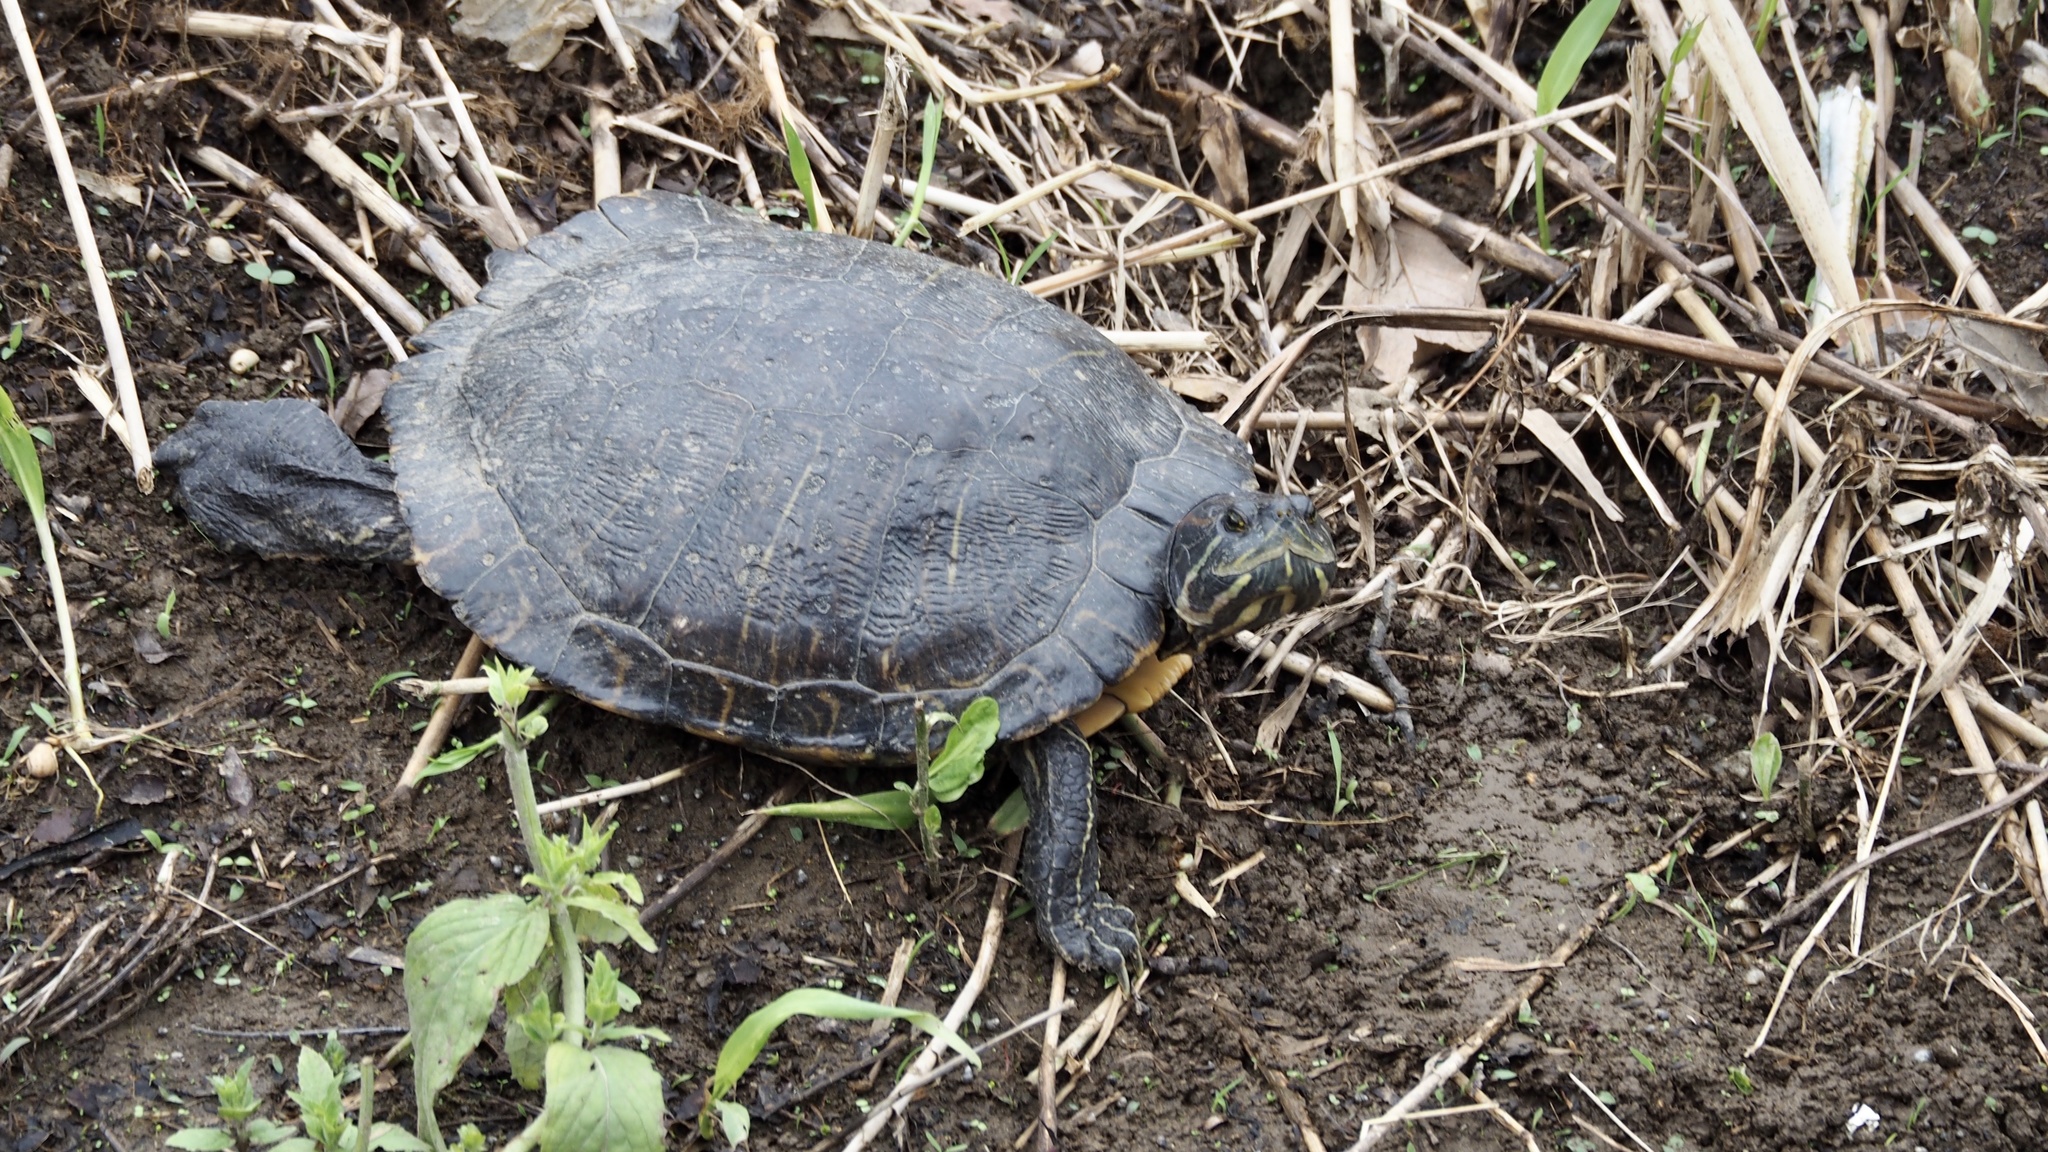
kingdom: Animalia
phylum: Chordata
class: Testudines
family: Emydidae
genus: Trachemys
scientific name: Trachemys scripta
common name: Slider
